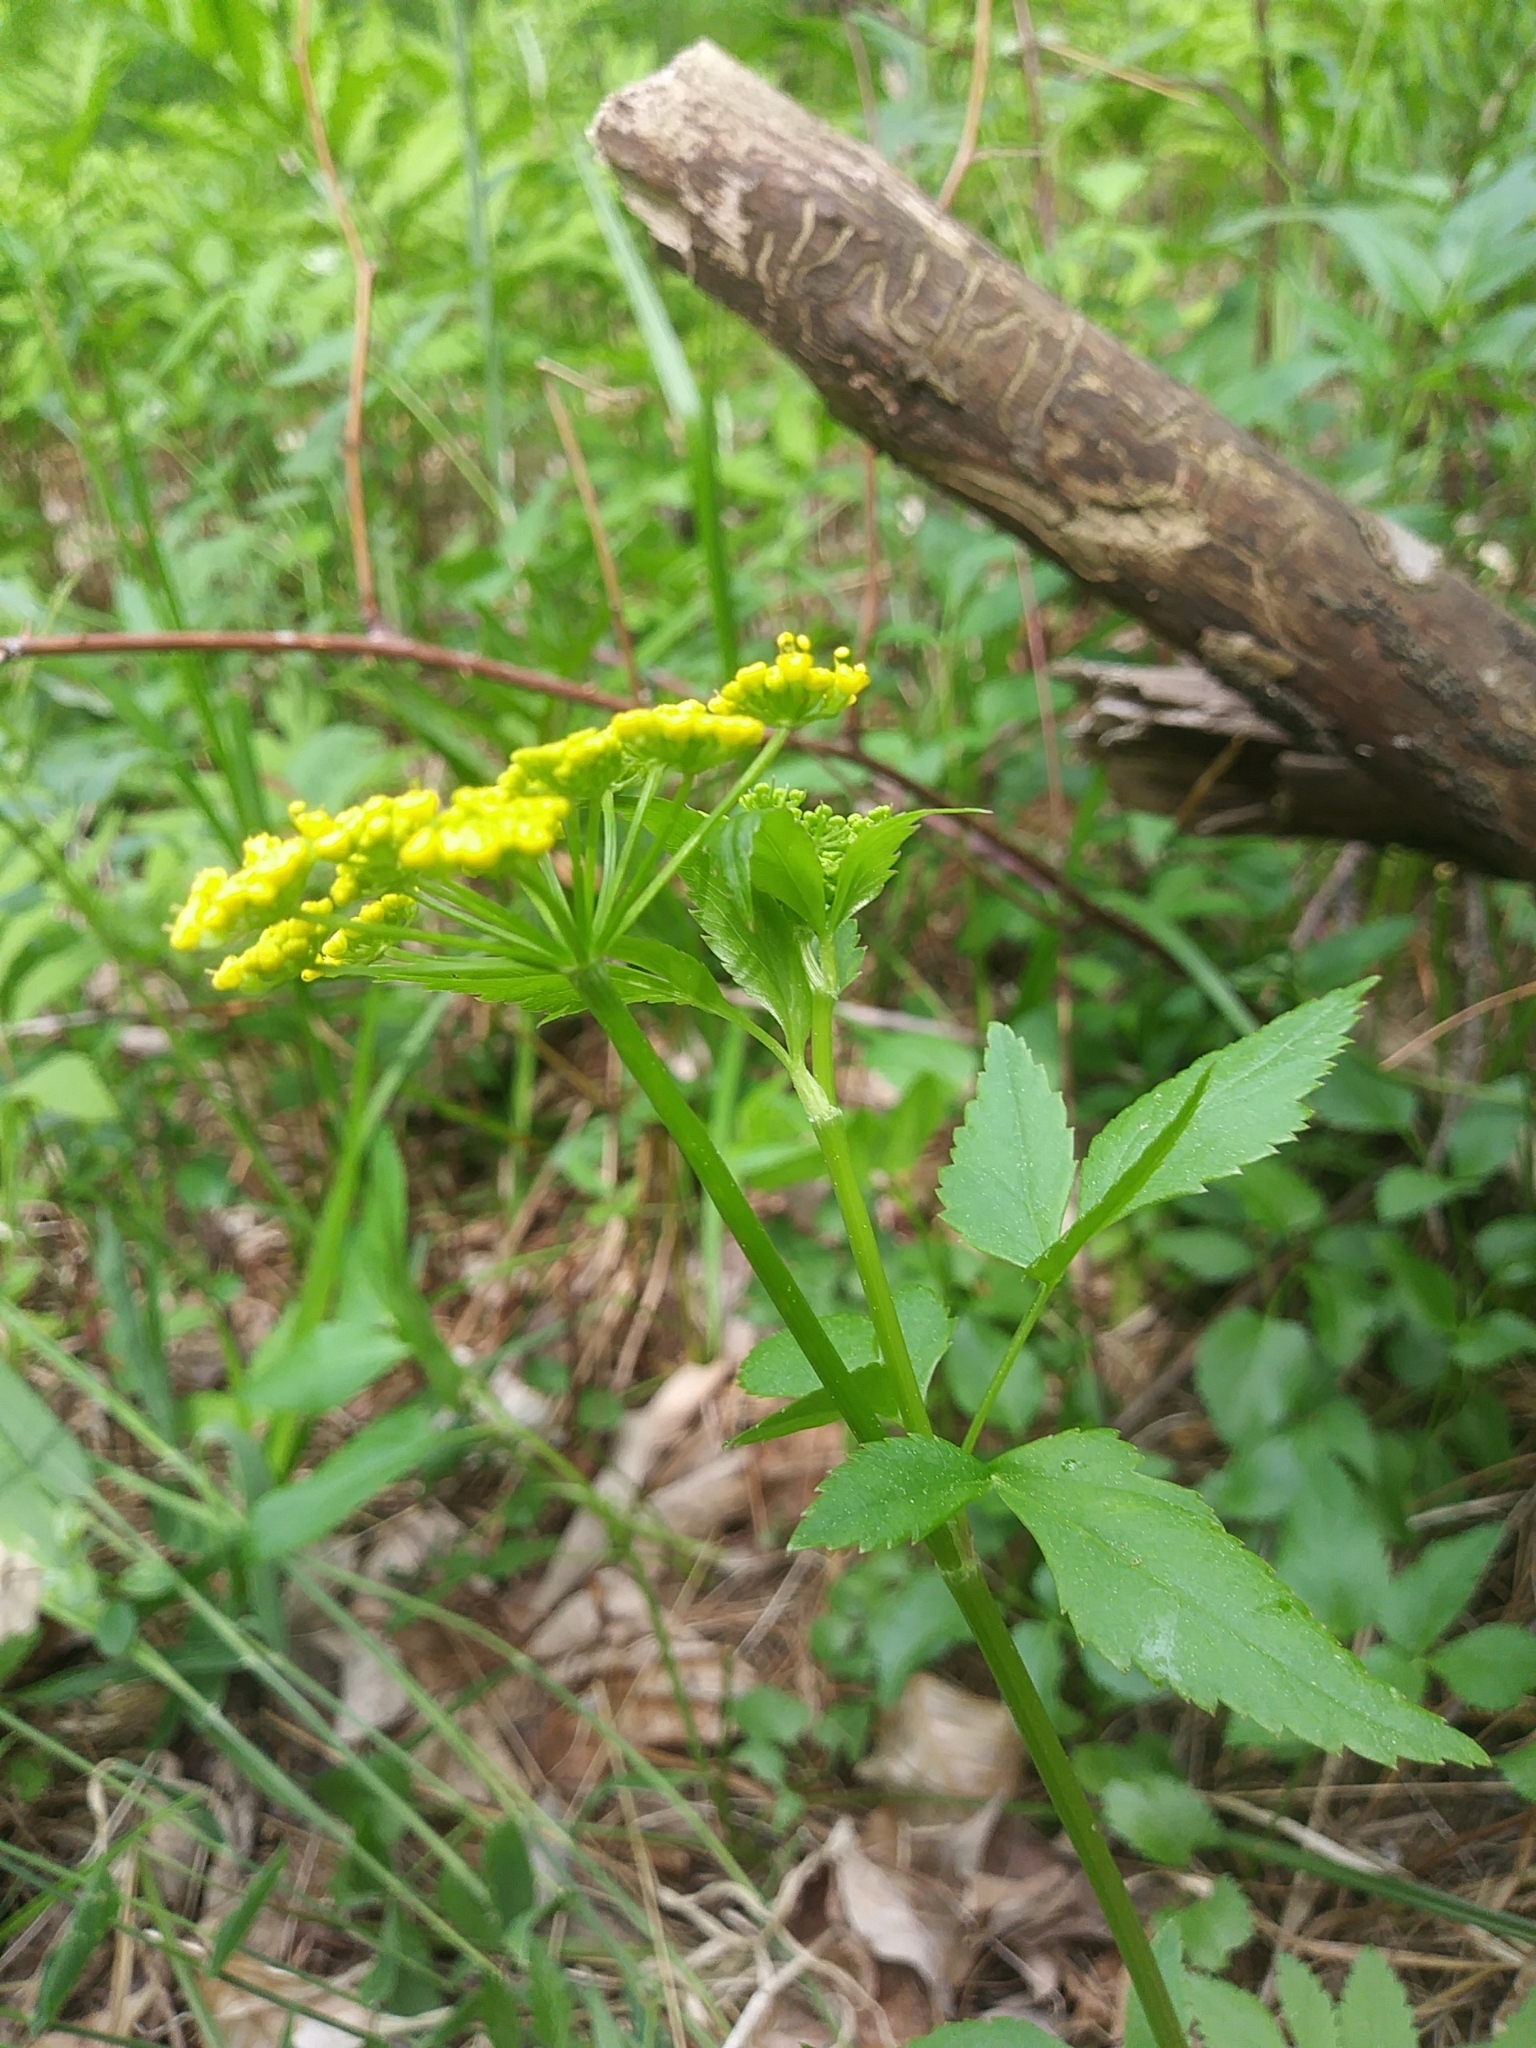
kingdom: Plantae
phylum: Tracheophyta
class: Magnoliopsida
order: Apiales
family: Apiaceae
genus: Zizia
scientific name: Zizia aurea
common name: Golden alexanders
